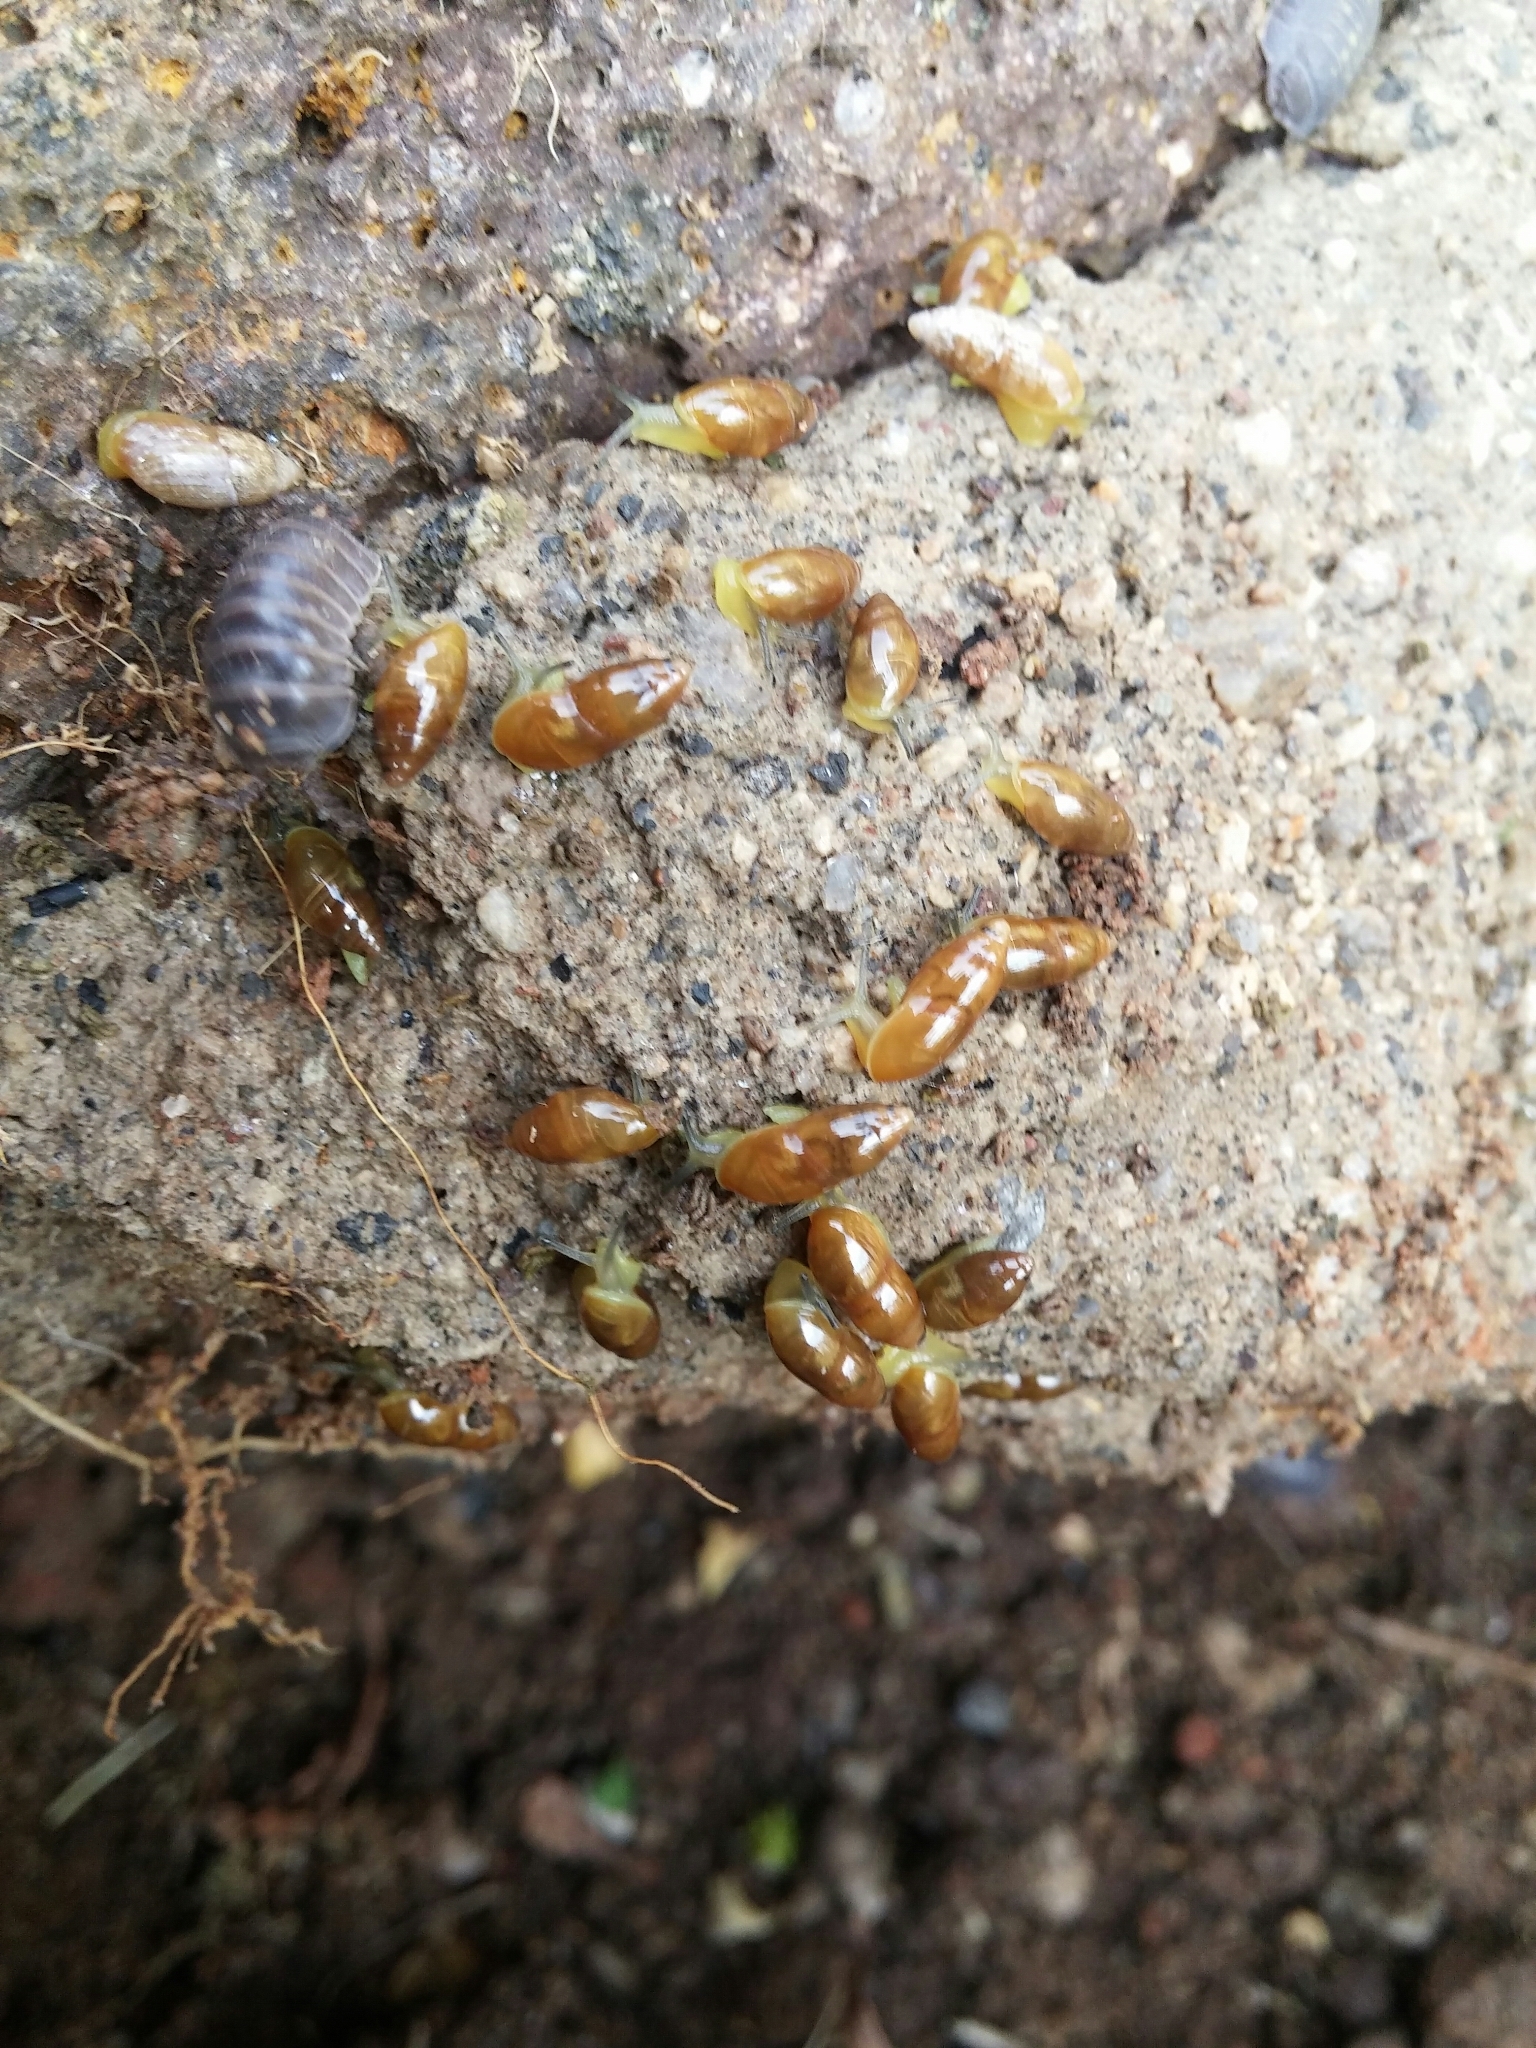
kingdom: Animalia
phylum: Mollusca
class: Gastropoda
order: Stylommatophora
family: Ferussaciidae
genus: Ferussacia
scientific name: Ferussacia folliculum
